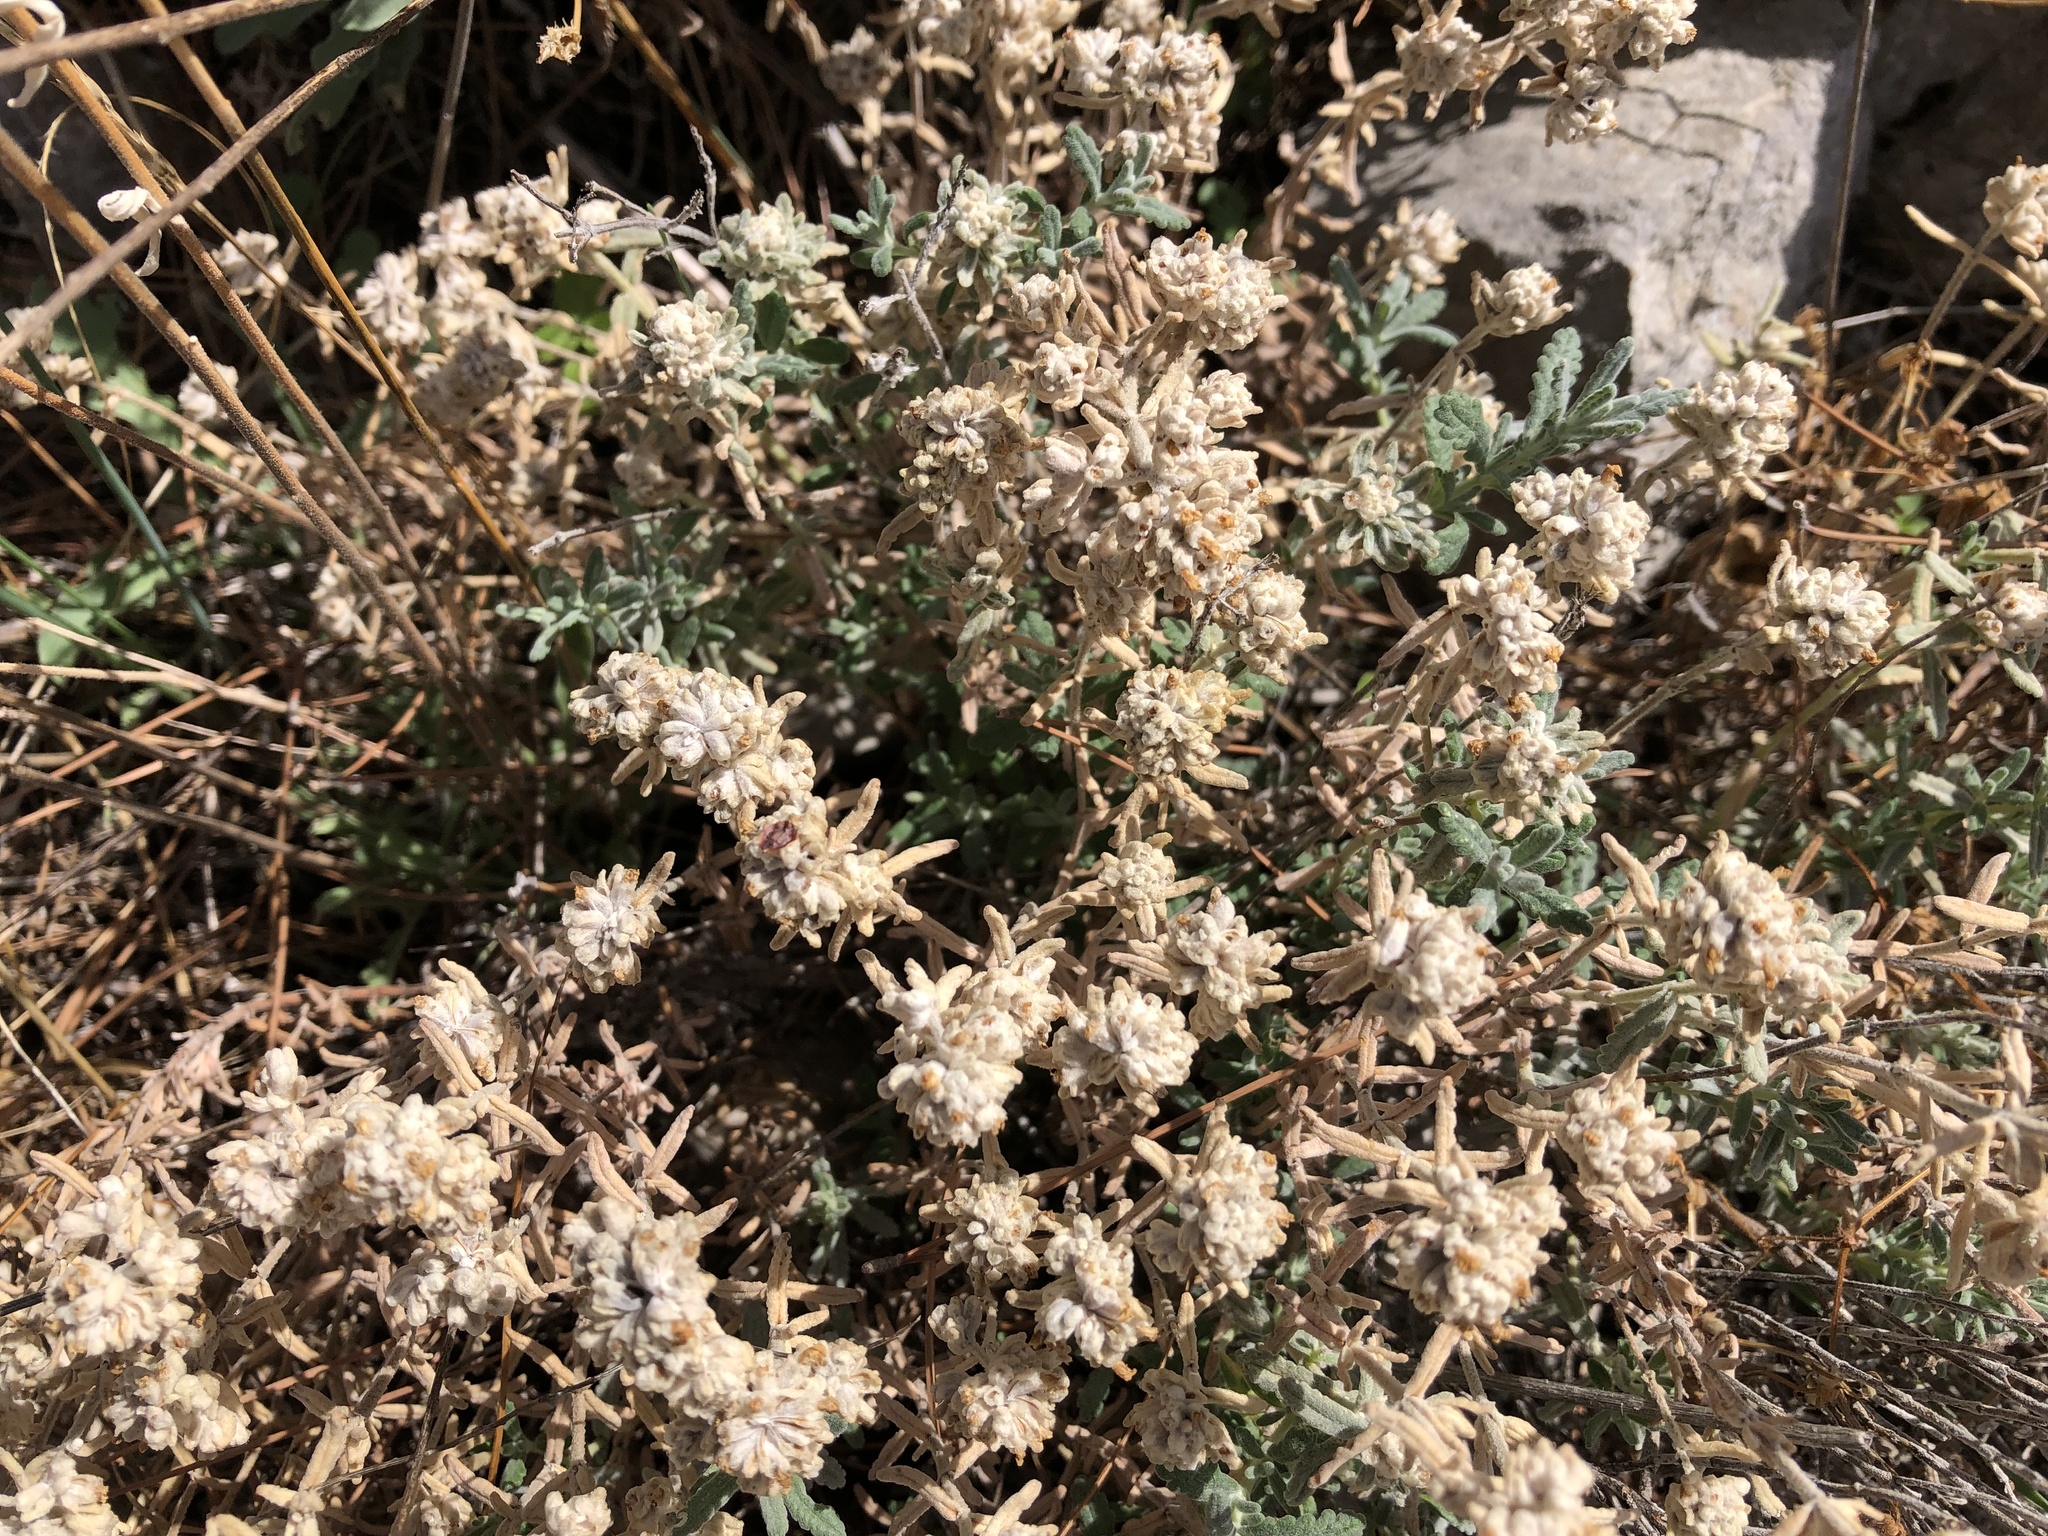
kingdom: Plantae
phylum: Tracheophyta
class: Magnoliopsida
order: Lamiales
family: Lamiaceae
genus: Teucrium
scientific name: Teucrium capitatum
